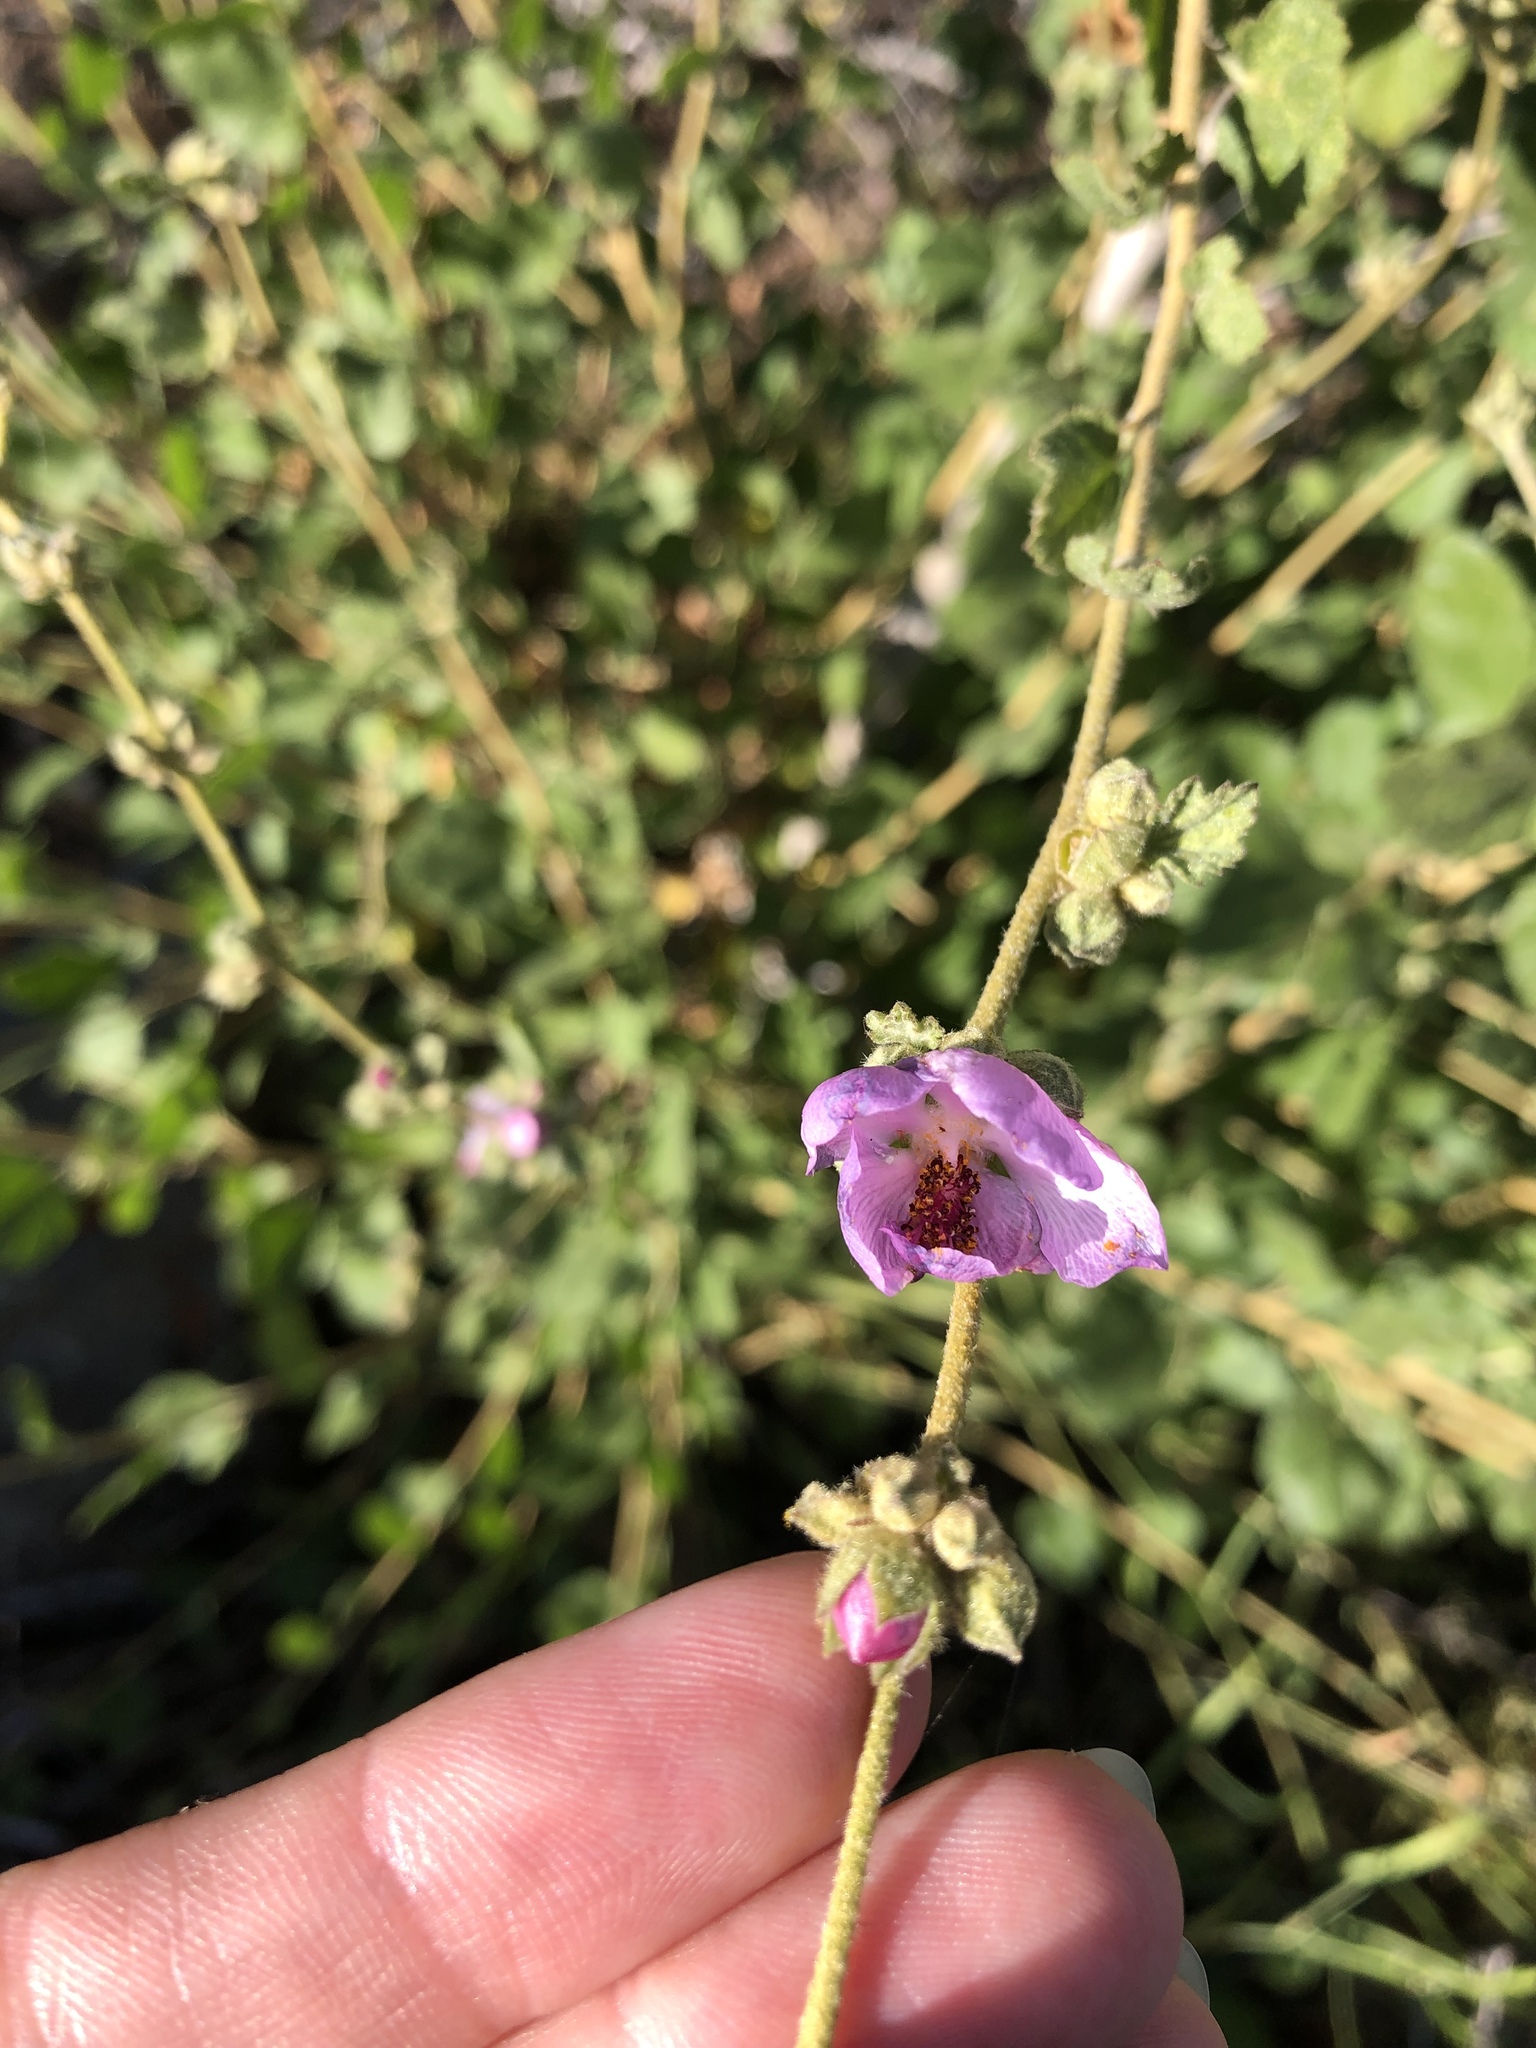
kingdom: Plantae
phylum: Tracheophyta
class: Magnoliopsida
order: Malvales
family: Malvaceae
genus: Malacothamnus
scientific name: Malacothamnus fasciculatus
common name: Sant cruz island bush-mallow
